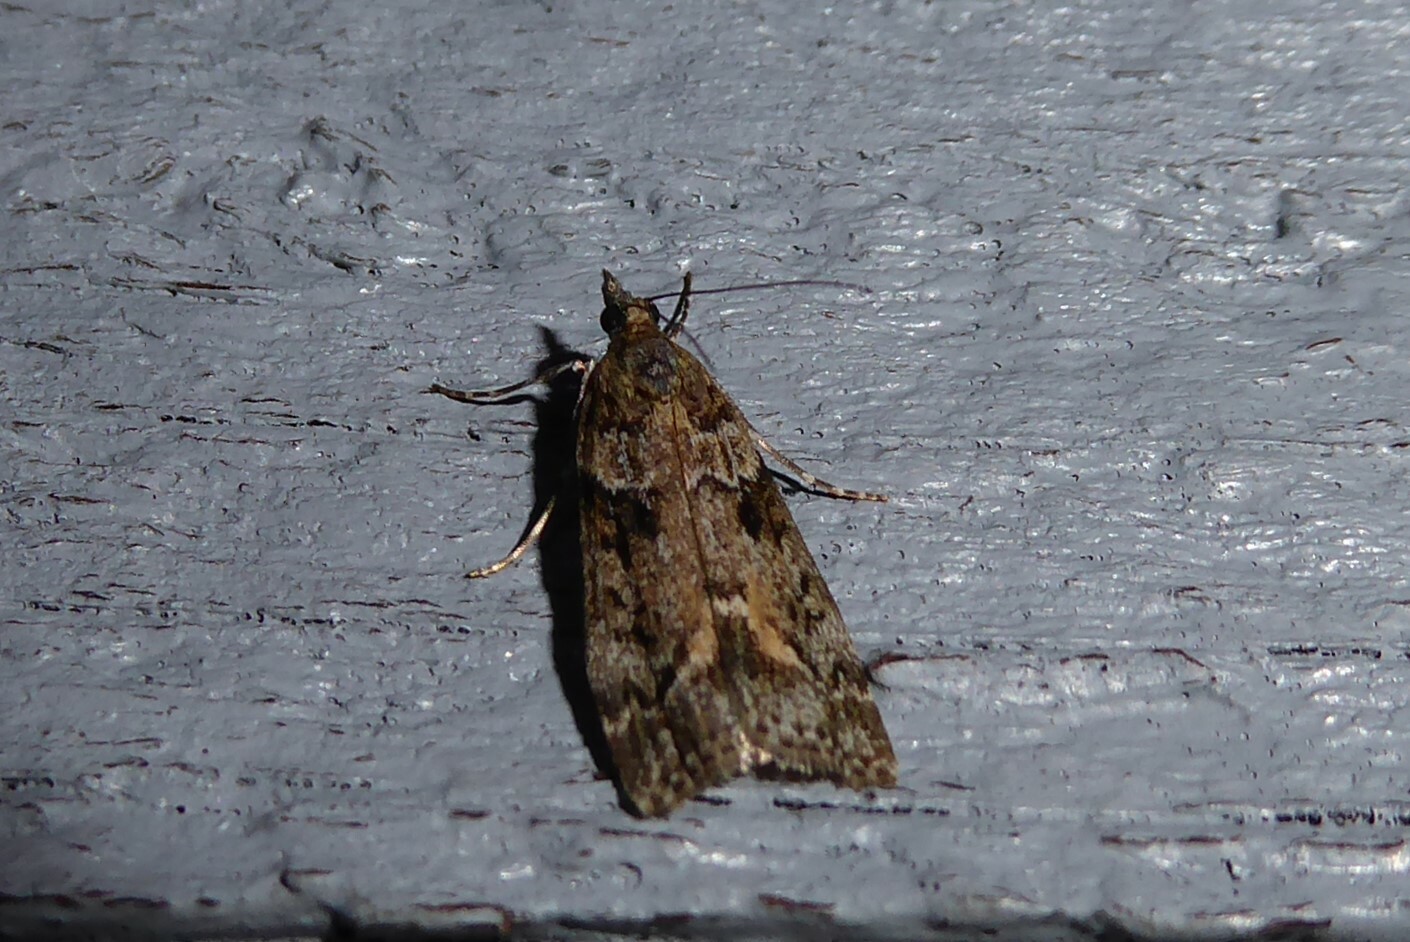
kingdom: Animalia
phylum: Arthropoda
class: Insecta
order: Lepidoptera
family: Crambidae
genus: Eudonia
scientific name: Eudonia submarginalis
